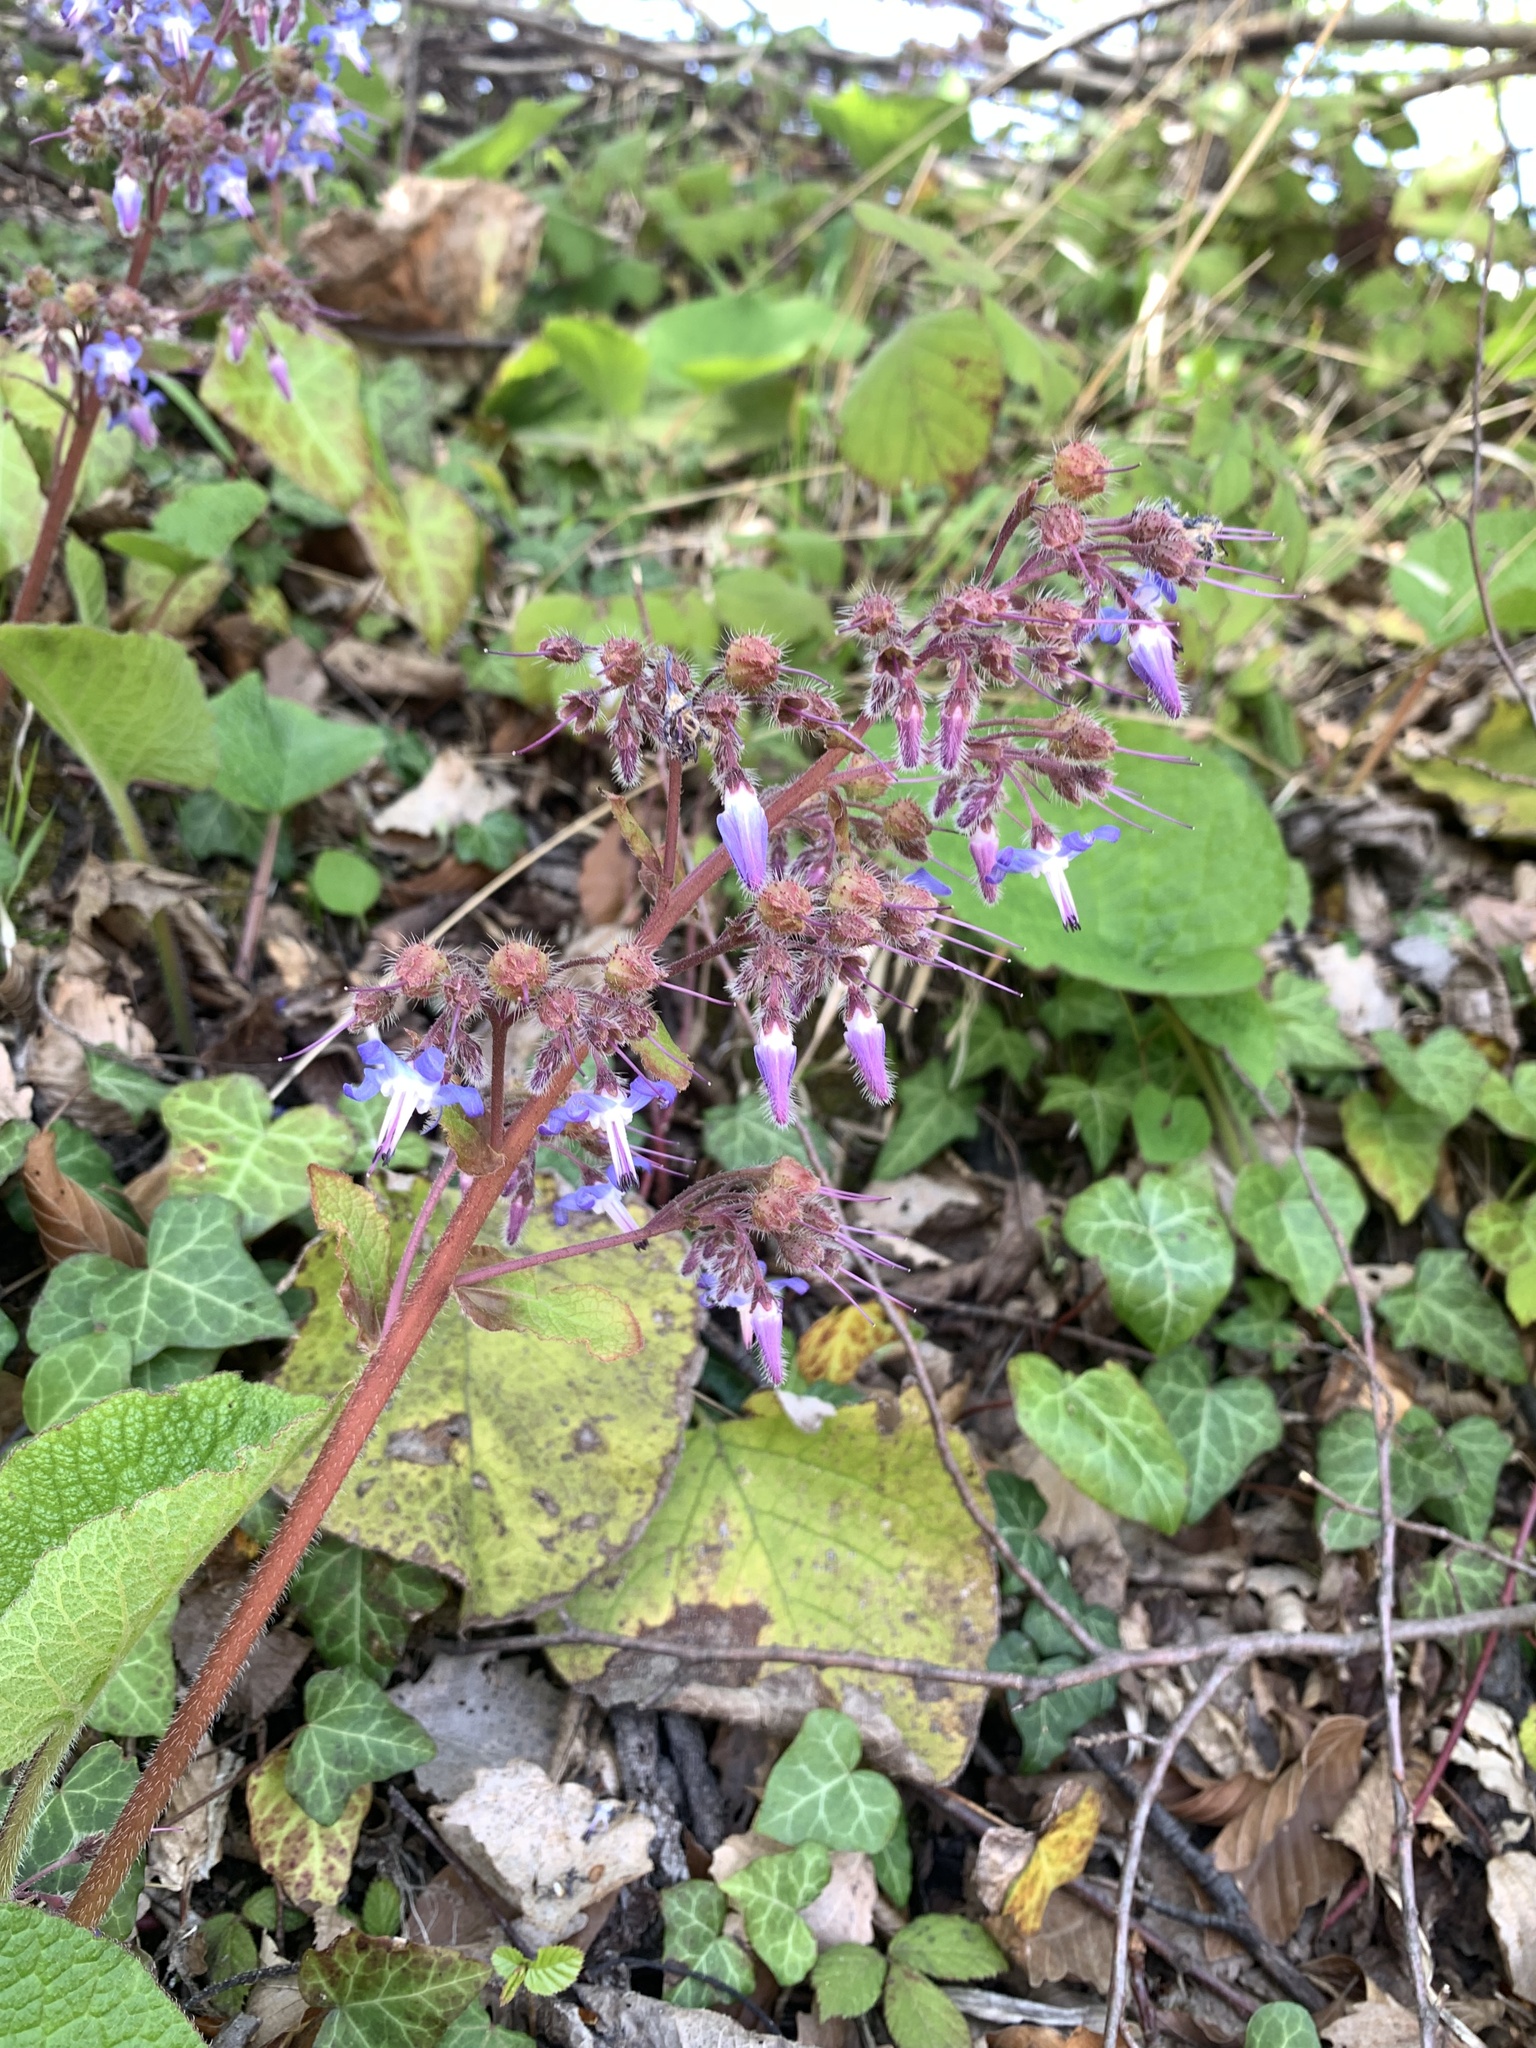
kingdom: Plantae
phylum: Tracheophyta
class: Magnoliopsida
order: Boraginales
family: Boraginaceae
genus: Trachystemon
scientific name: Trachystemon orientale
